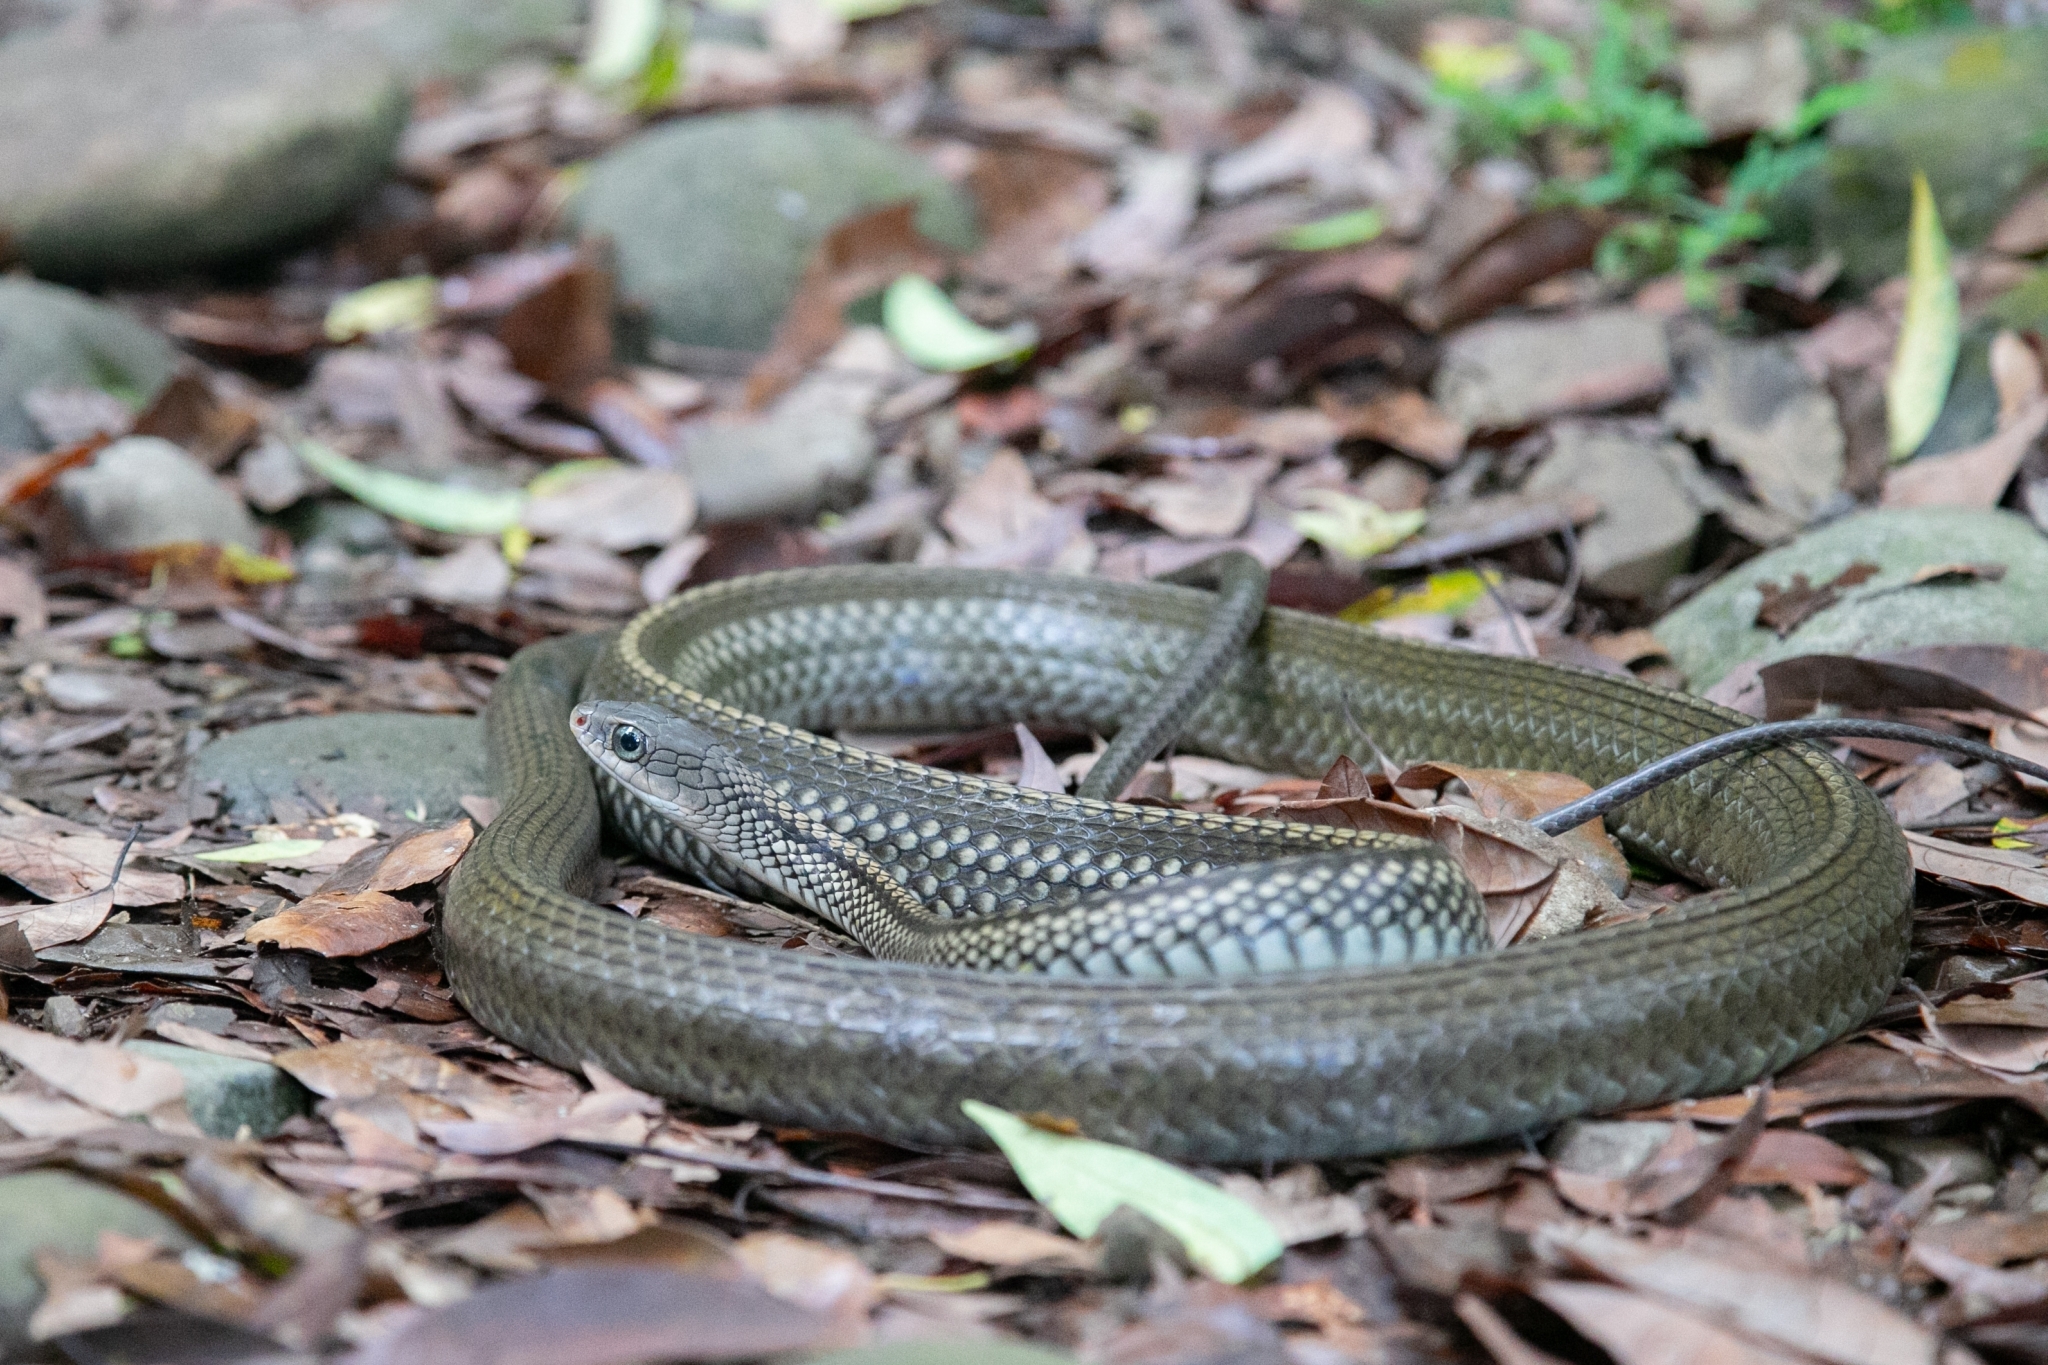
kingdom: Animalia
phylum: Chordata
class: Squamata
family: Colubridae
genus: Ptyas
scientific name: Ptyas dhumnades
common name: Black-striped rat snake
